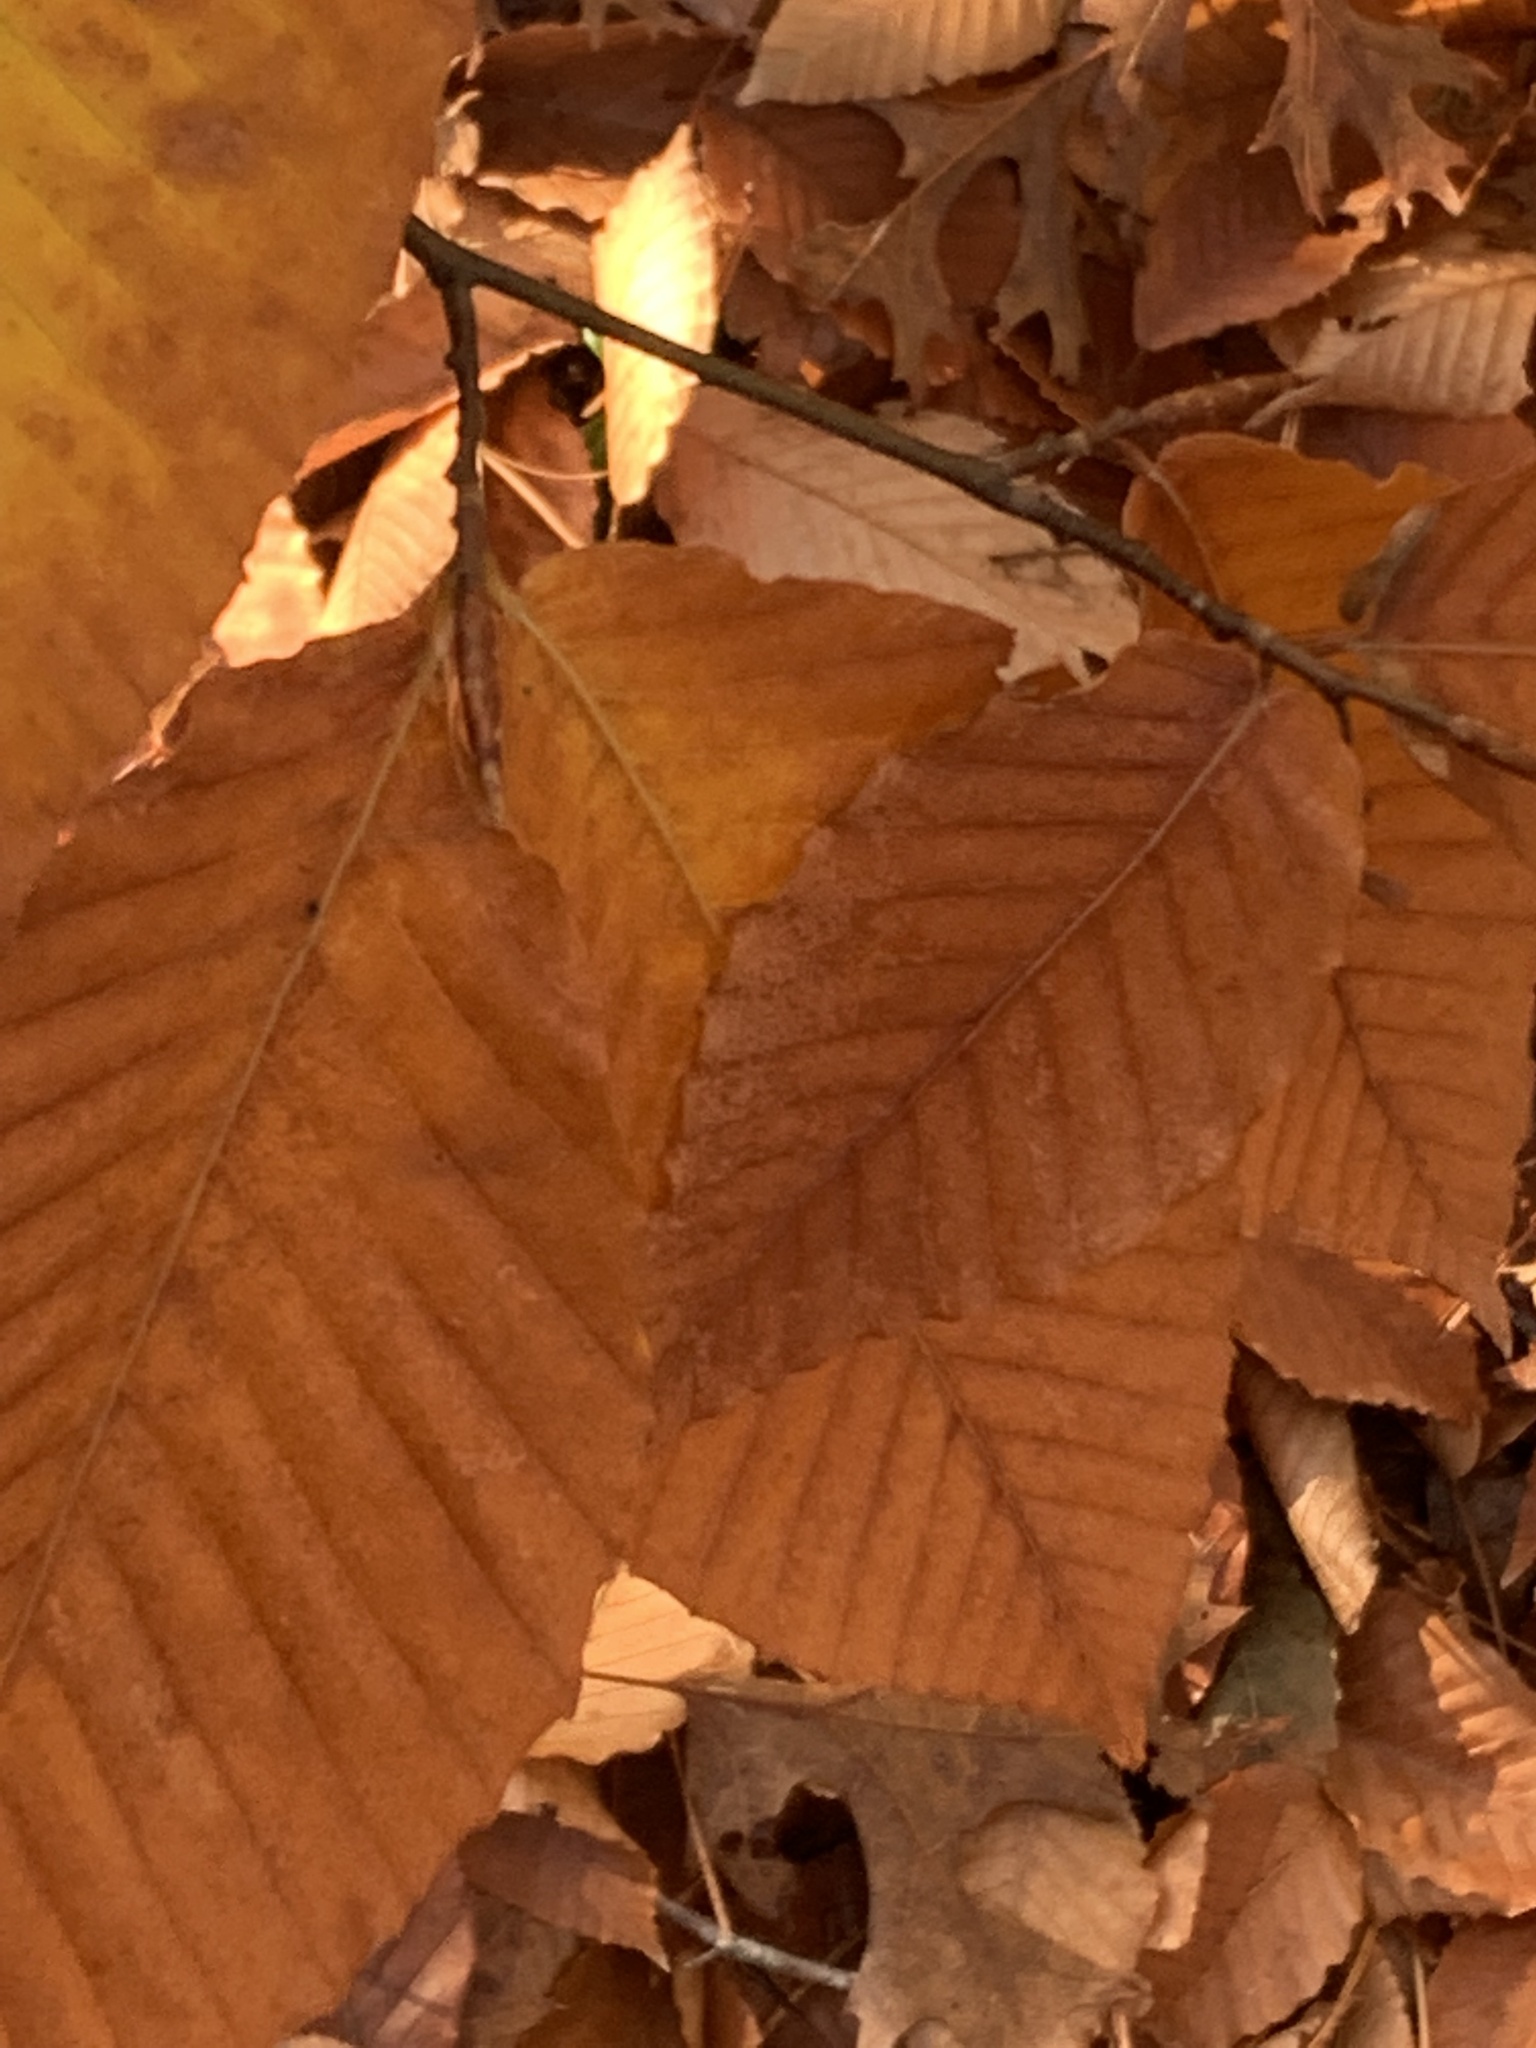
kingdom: Plantae
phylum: Tracheophyta
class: Magnoliopsida
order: Fagales
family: Fagaceae
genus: Fagus
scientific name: Fagus grandifolia
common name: American beech
